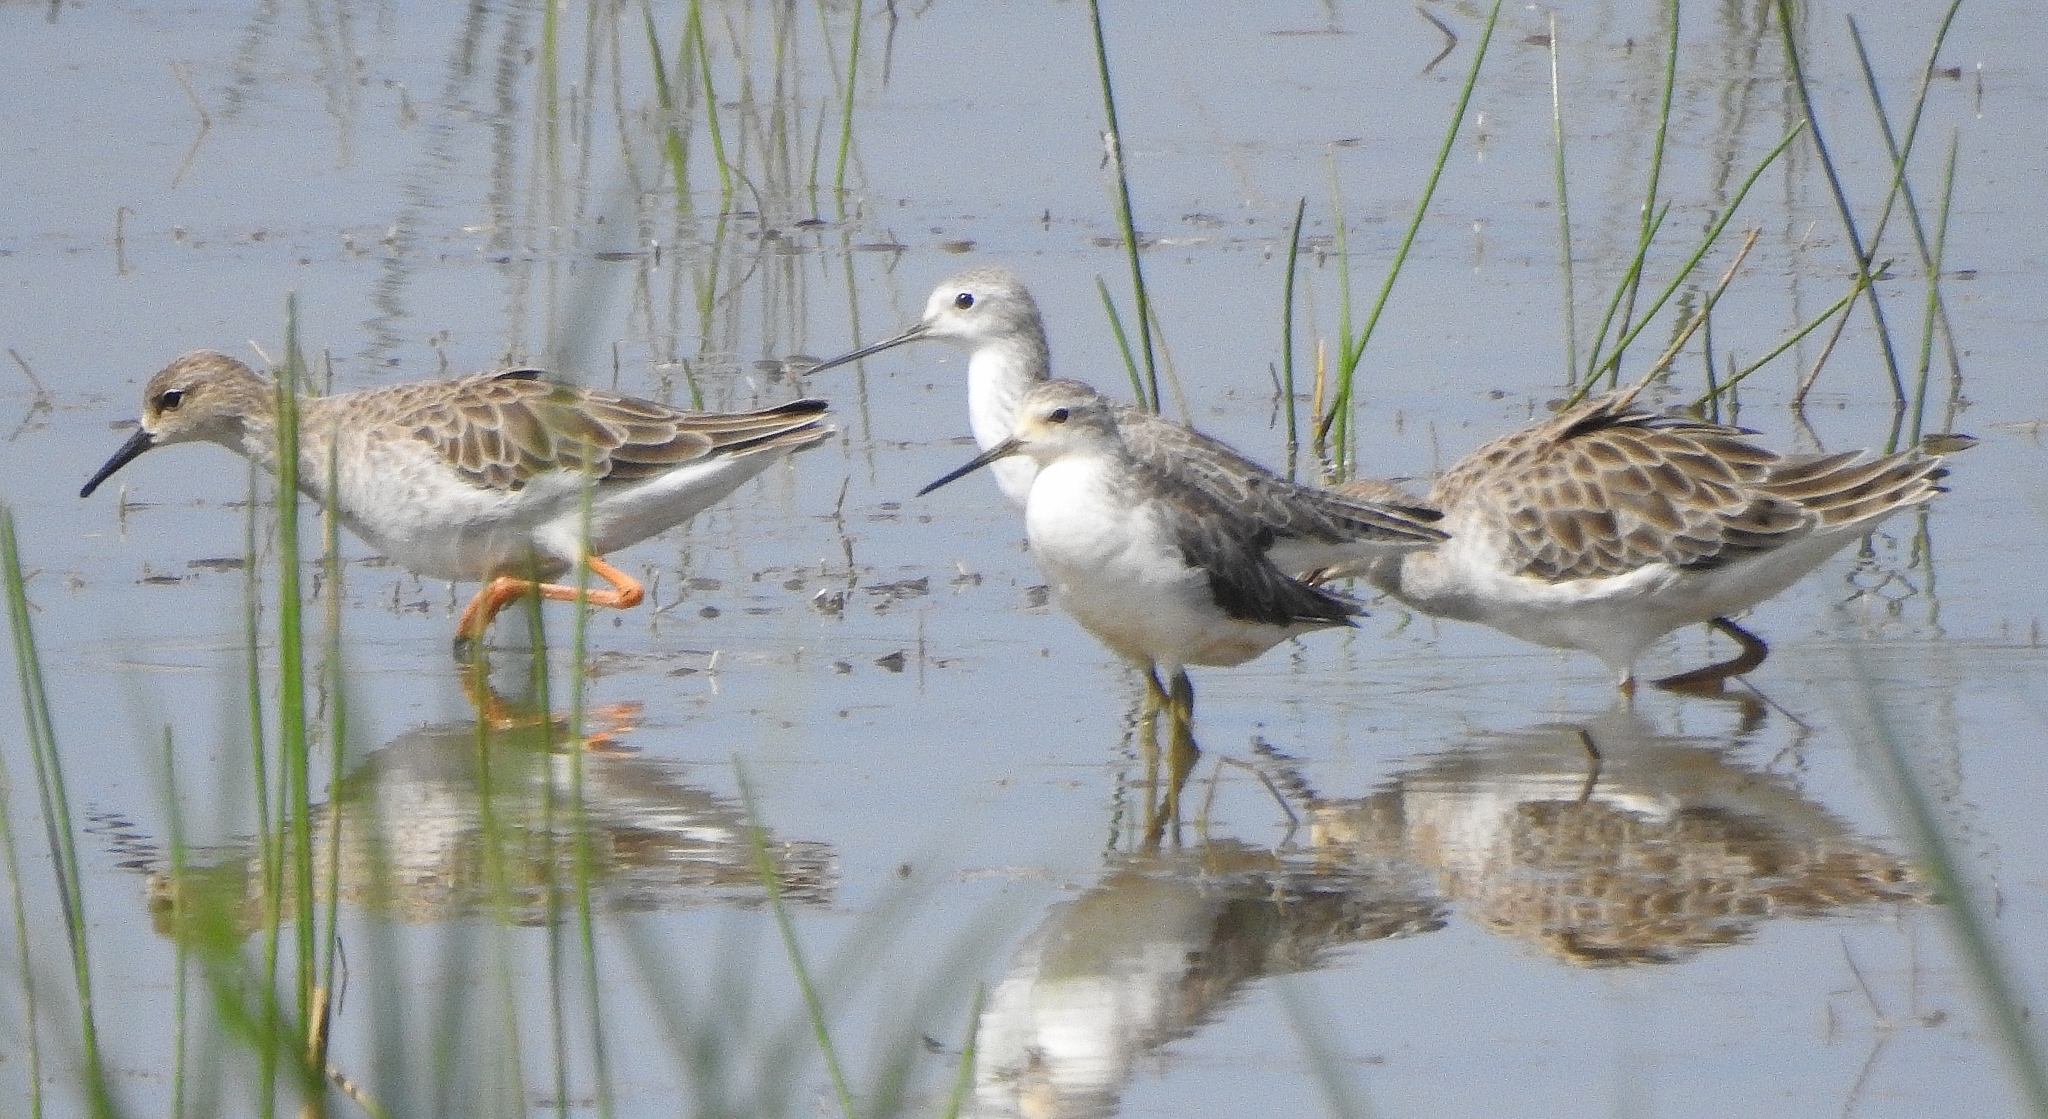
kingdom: Animalia
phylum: Chordata
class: Aves
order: Charadriiformes
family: Scolopacidae
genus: Calidris
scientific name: Calidris pugnax
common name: Ruff
